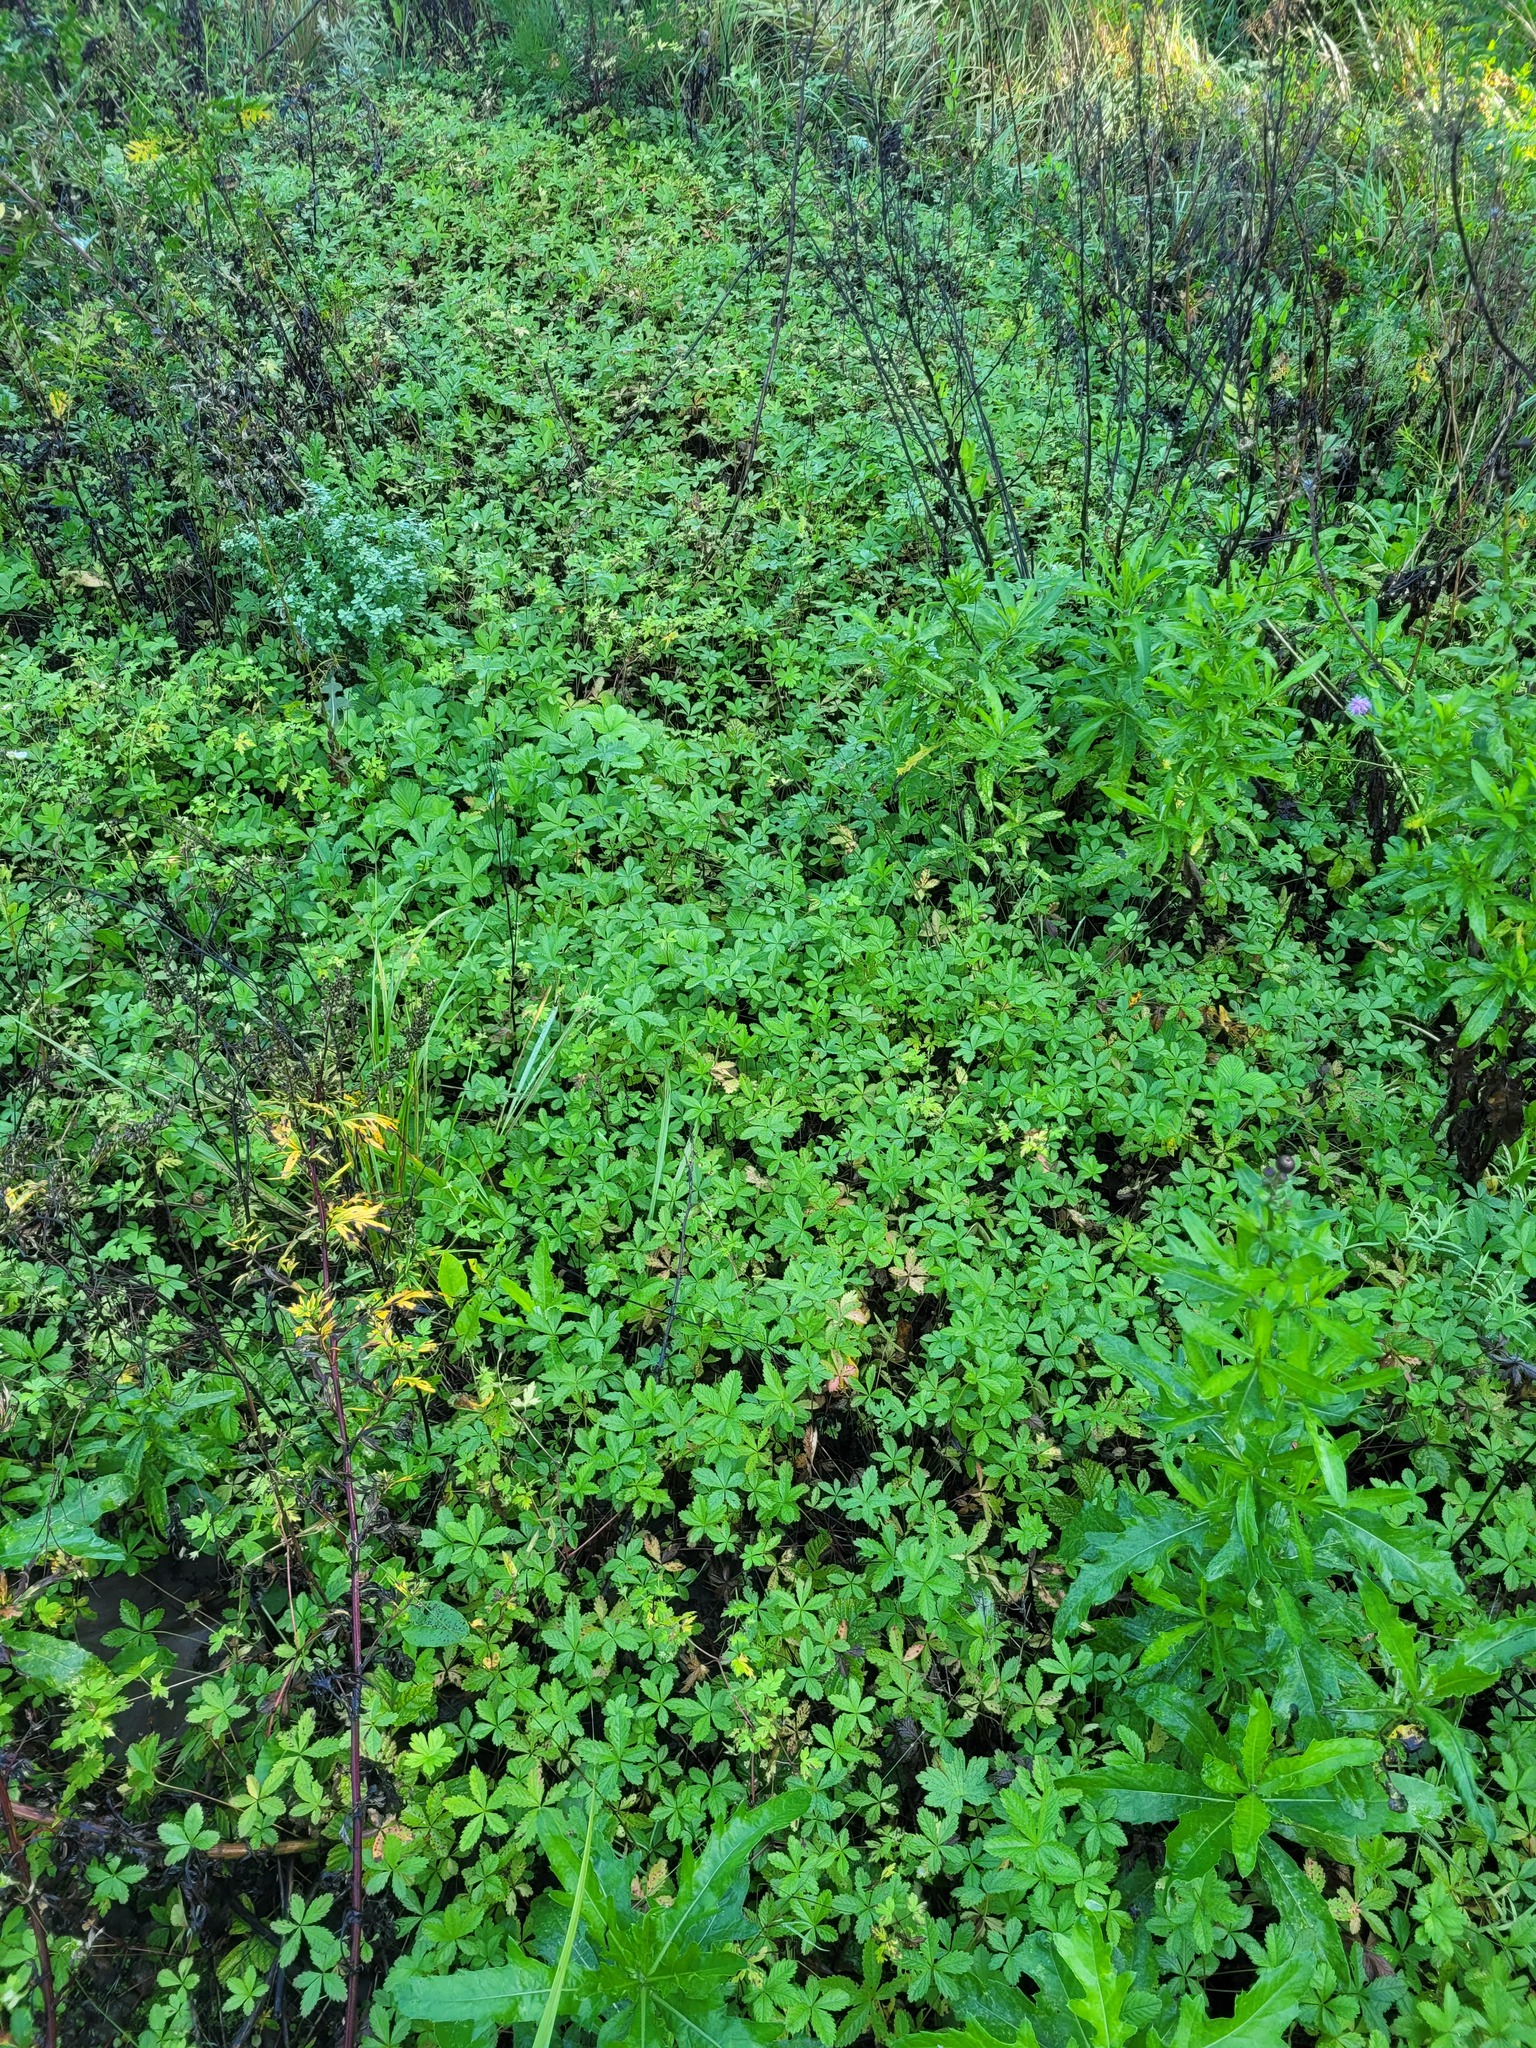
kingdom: Plantae
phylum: Tracheophyta
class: Magnoliopsida
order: Rosales
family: Rosaceae
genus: Potentilla
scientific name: Potentilla reptans
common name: Creeping cinquefoil
